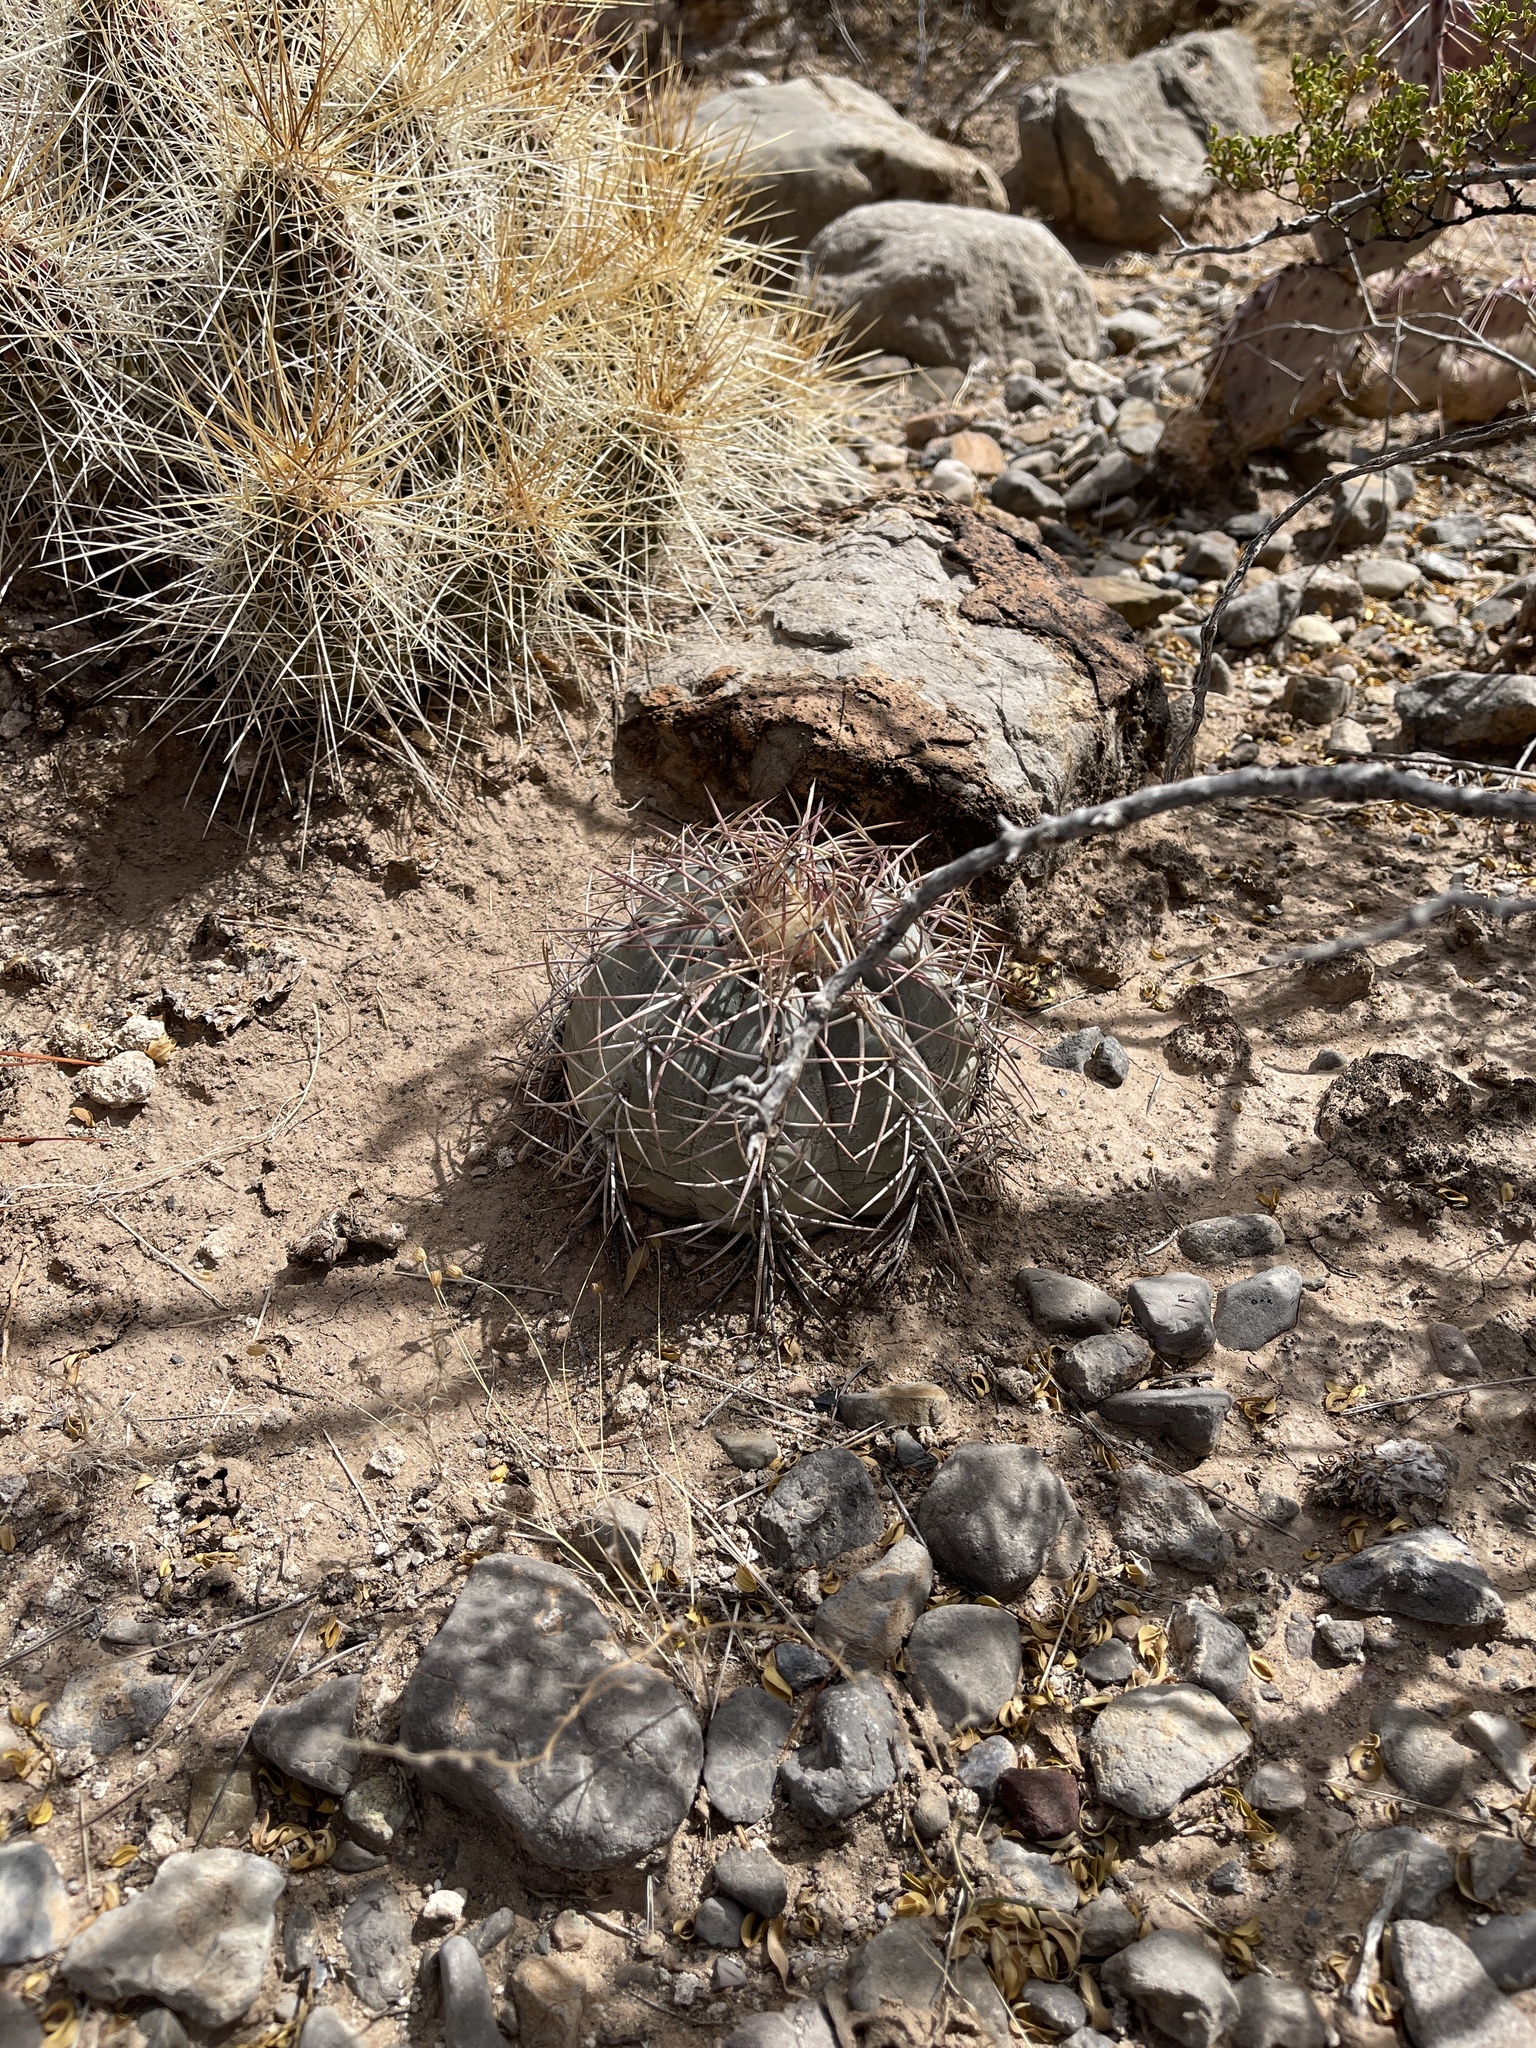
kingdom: Plantae
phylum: Tracheophyta
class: Magnoliopsida
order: Caryophyllales
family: Cactaceae
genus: Echinocactus
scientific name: Echinocactus horizonthalonius
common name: Devilshead
